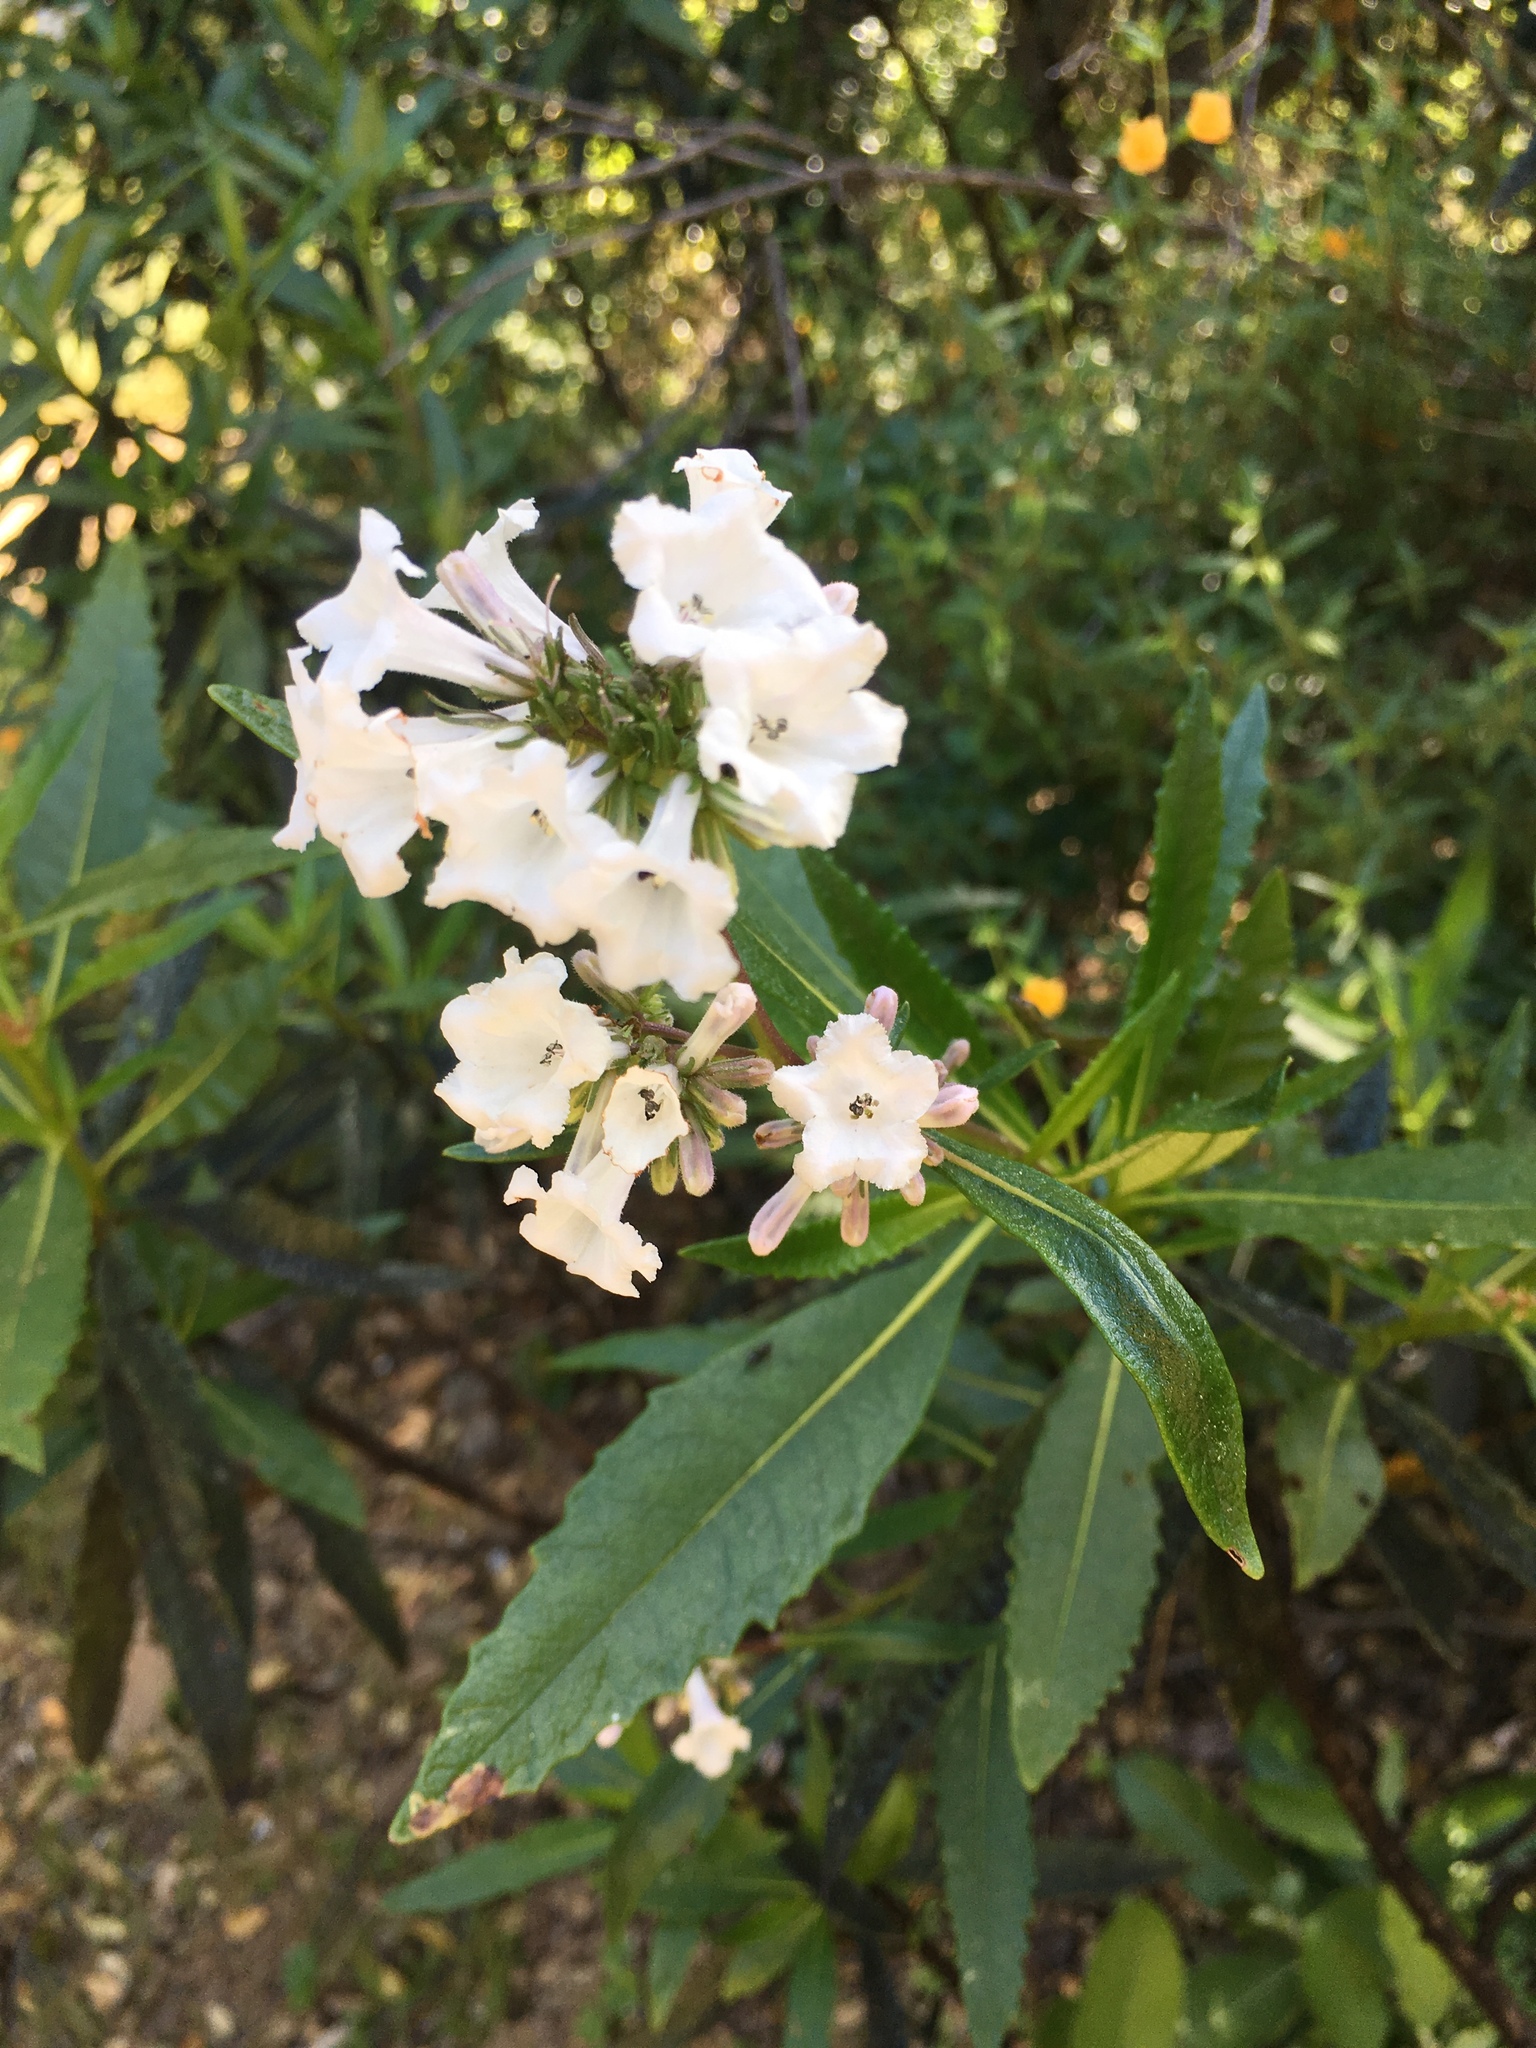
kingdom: Plantae
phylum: Tracheophyta
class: Magnoliopsida
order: Boraginales
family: Namaceae
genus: Eriodictyon
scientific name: Eriodictyon californicum
